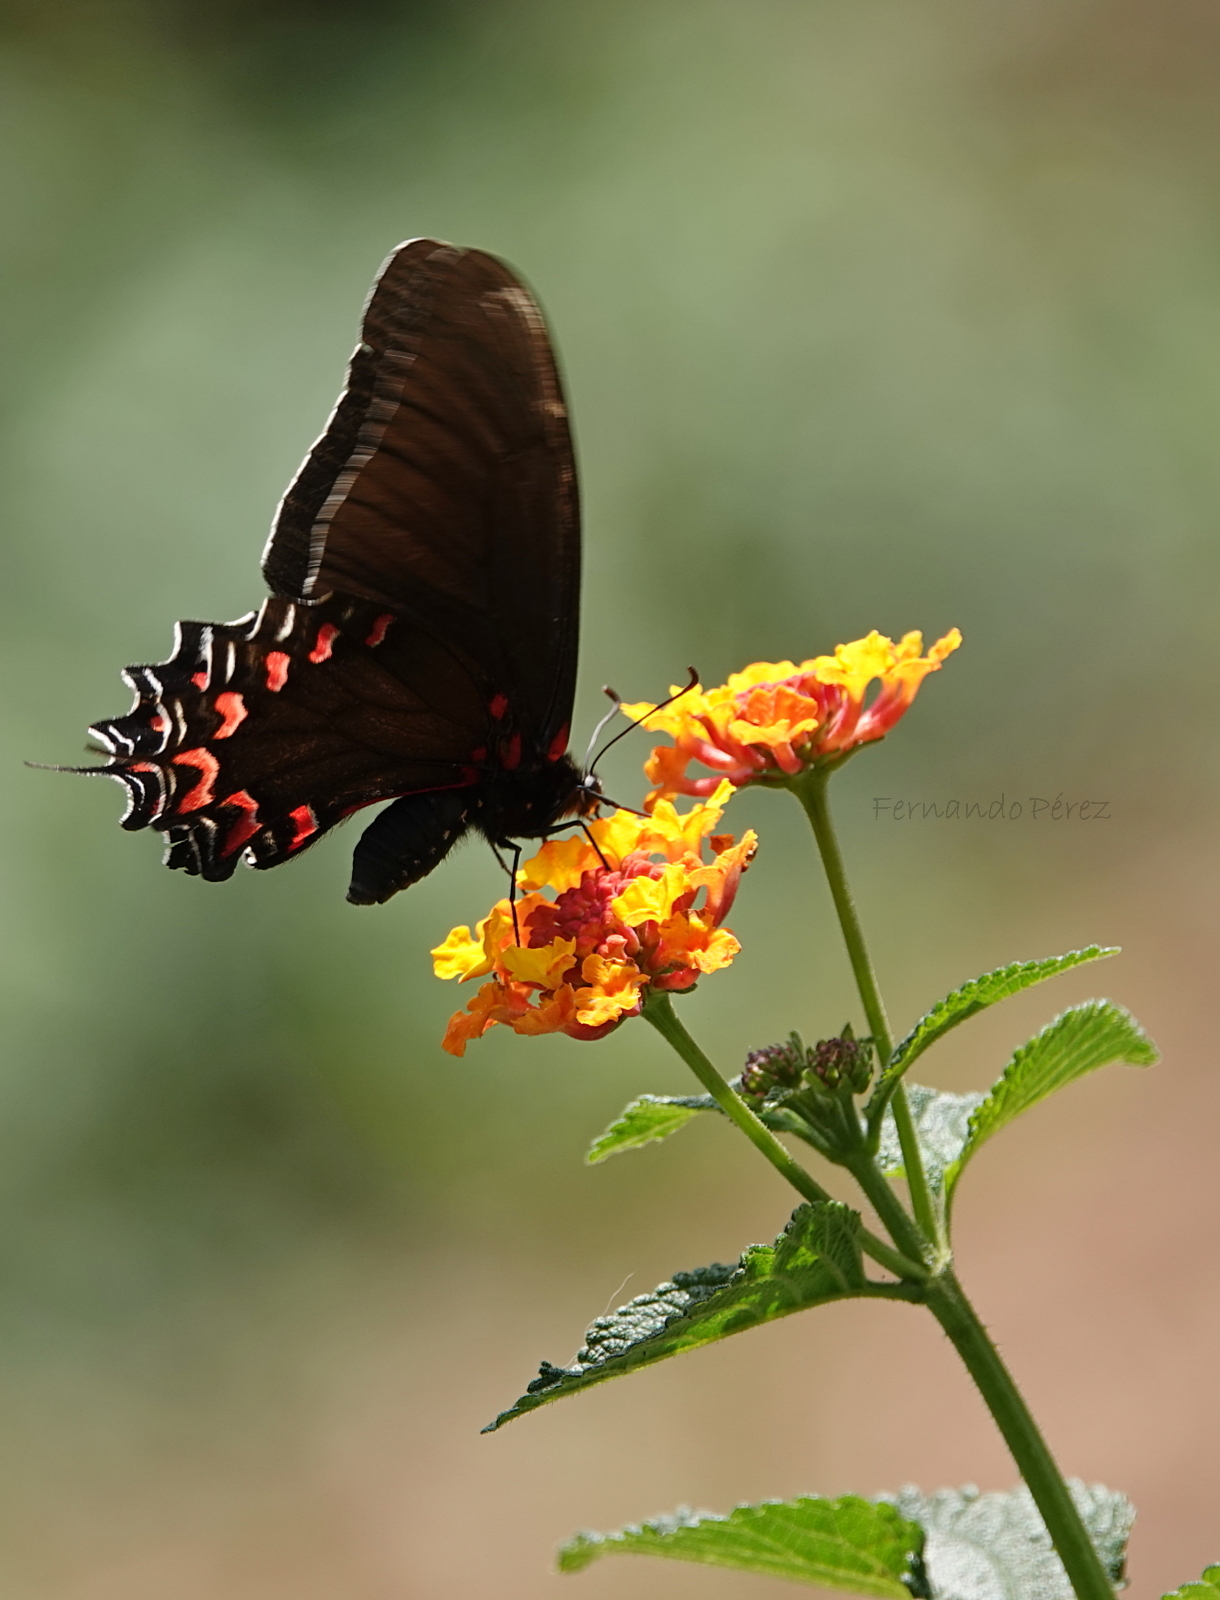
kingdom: Animalia
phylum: Arthropoda
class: Insecta
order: Lepidoptera
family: Papilionidae
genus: Mimoides
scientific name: Mimoides thymbraeus
